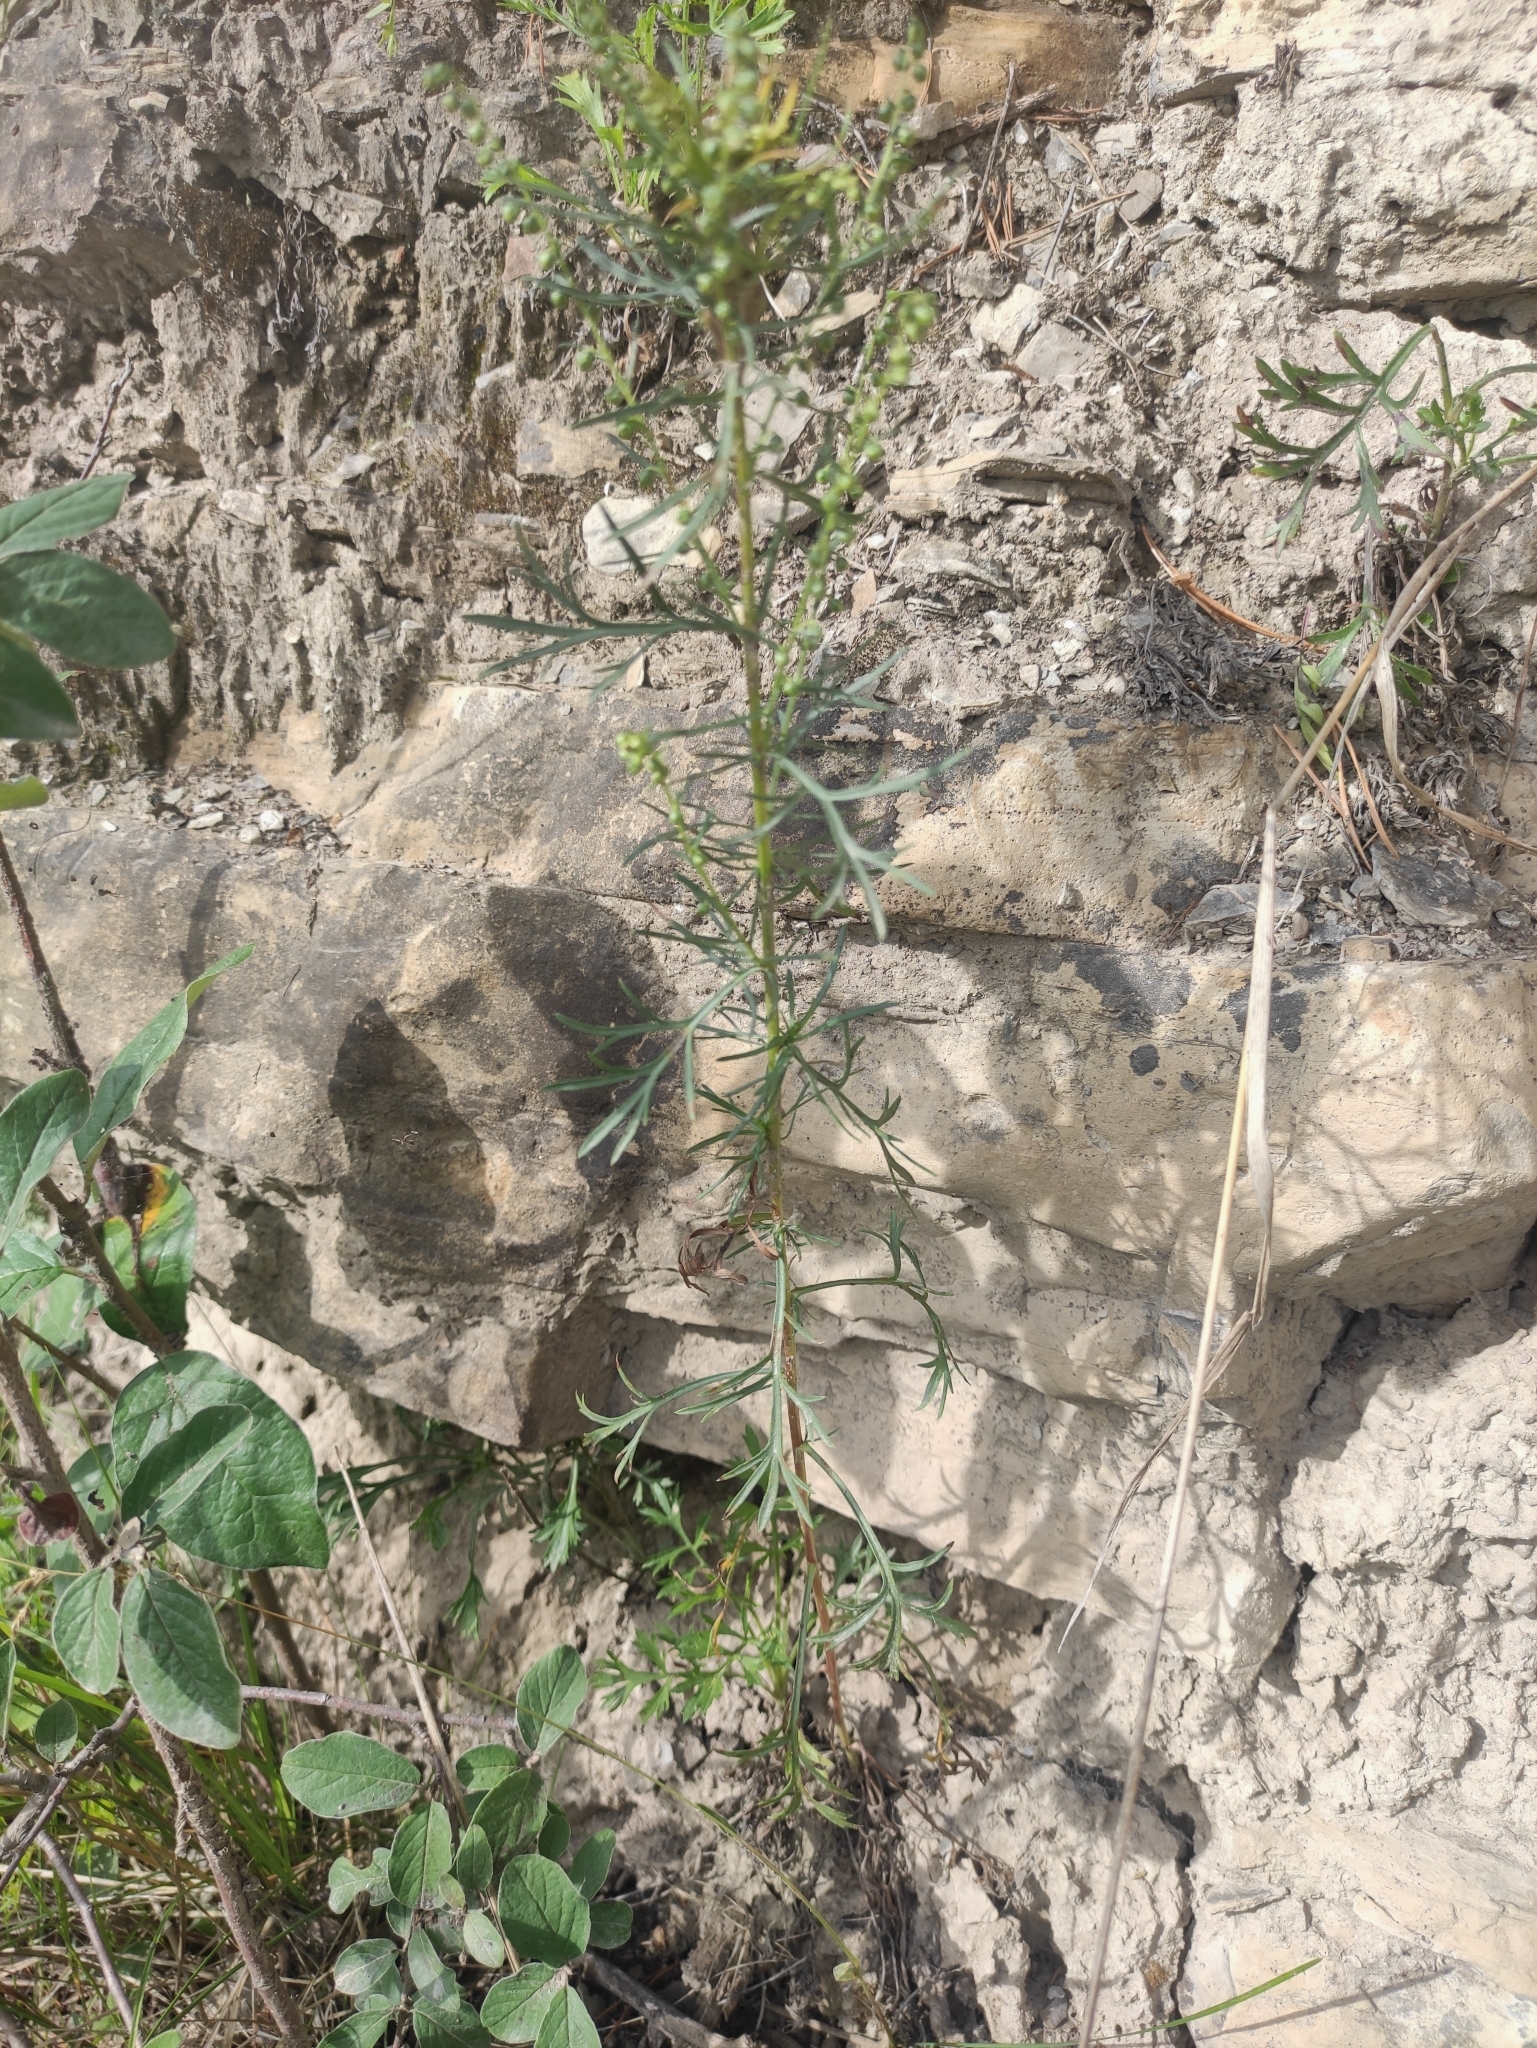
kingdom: Plantae
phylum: Tracheophyta
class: Magnoliopsida
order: Asterales
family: Asteraceae
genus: Artemisia
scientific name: Artemisia pubescens
